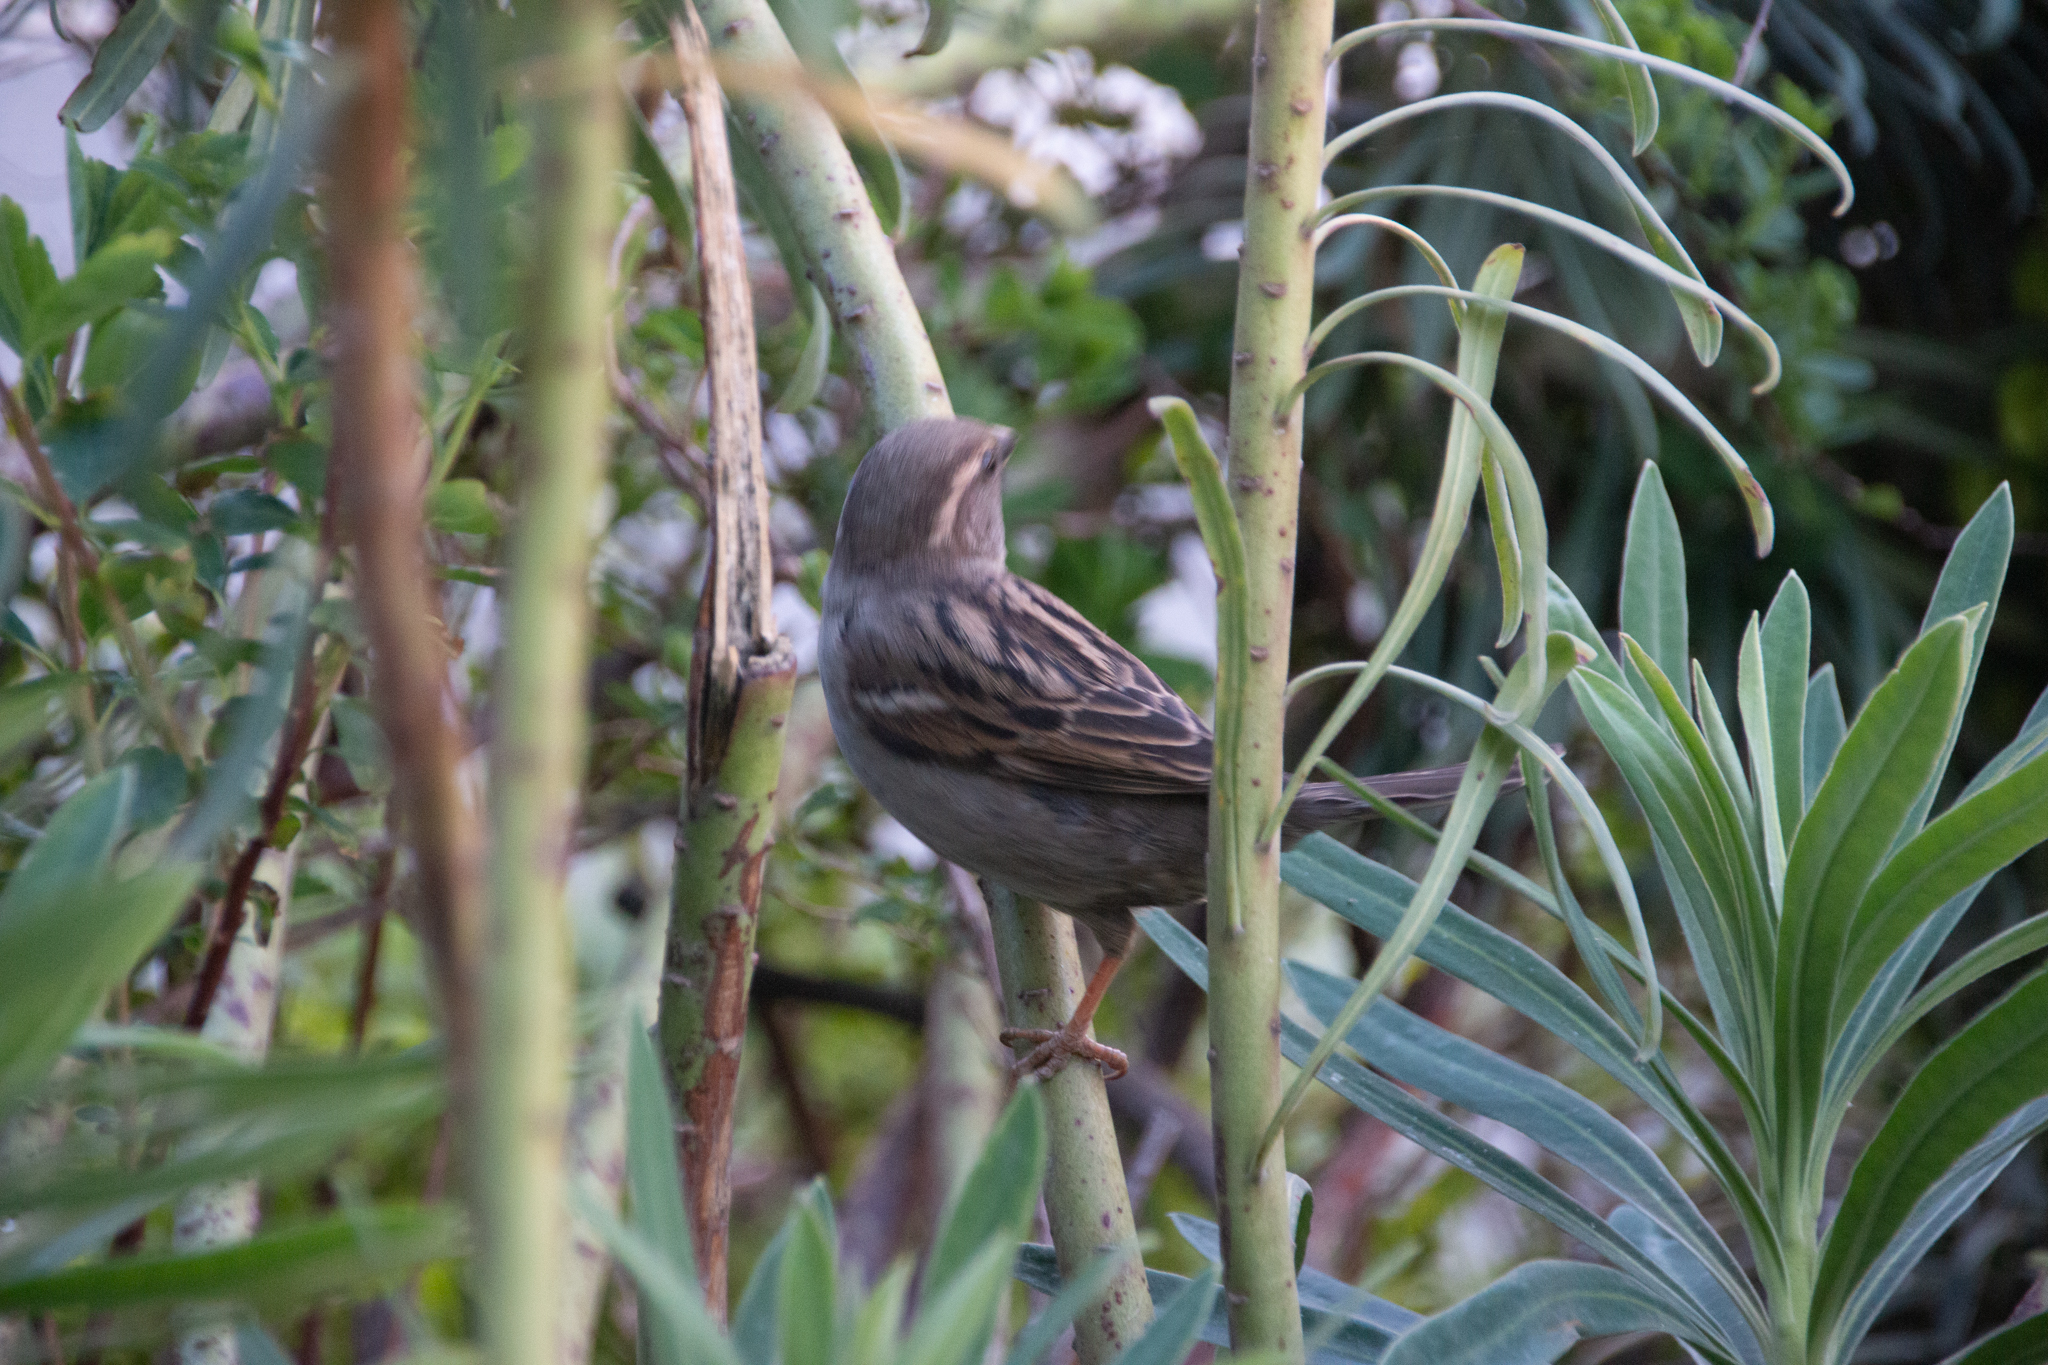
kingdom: Animalia
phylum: Chordata
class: Aves
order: Passeriformes
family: Passeridae
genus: Passer
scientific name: Passer domesticus
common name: House sparrow
